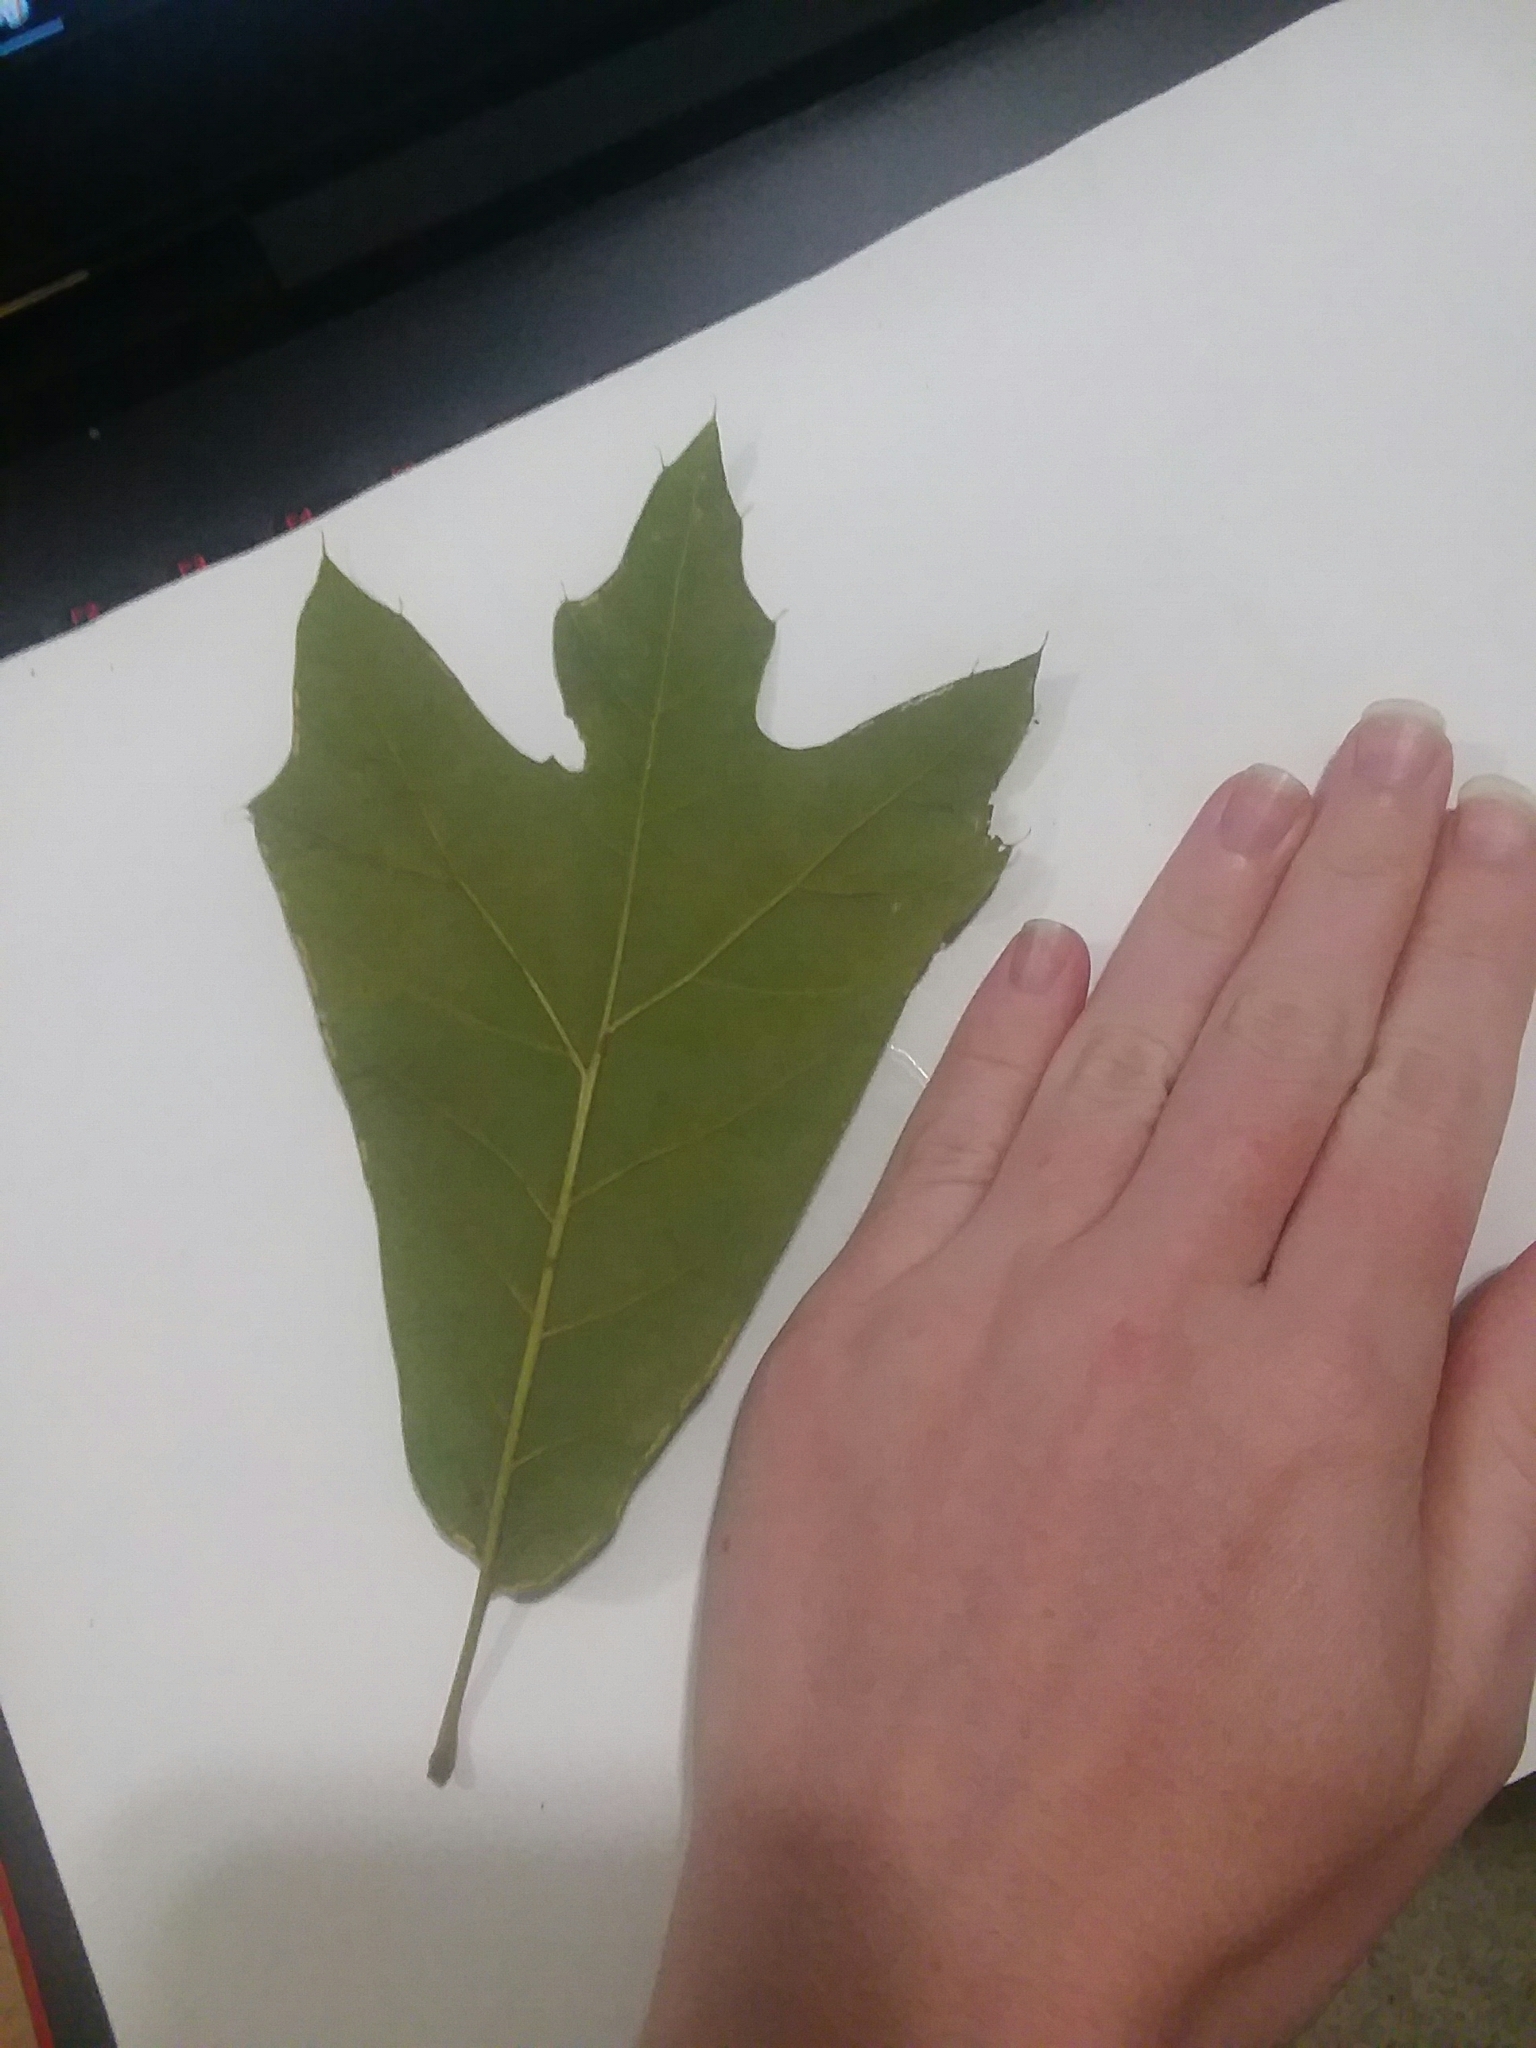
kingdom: Plantae
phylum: Tracheophyta
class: Magnoliopsida
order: Fagales
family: Fagaceae
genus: Quercus
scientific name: Quercus falcata
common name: Southern red oak
